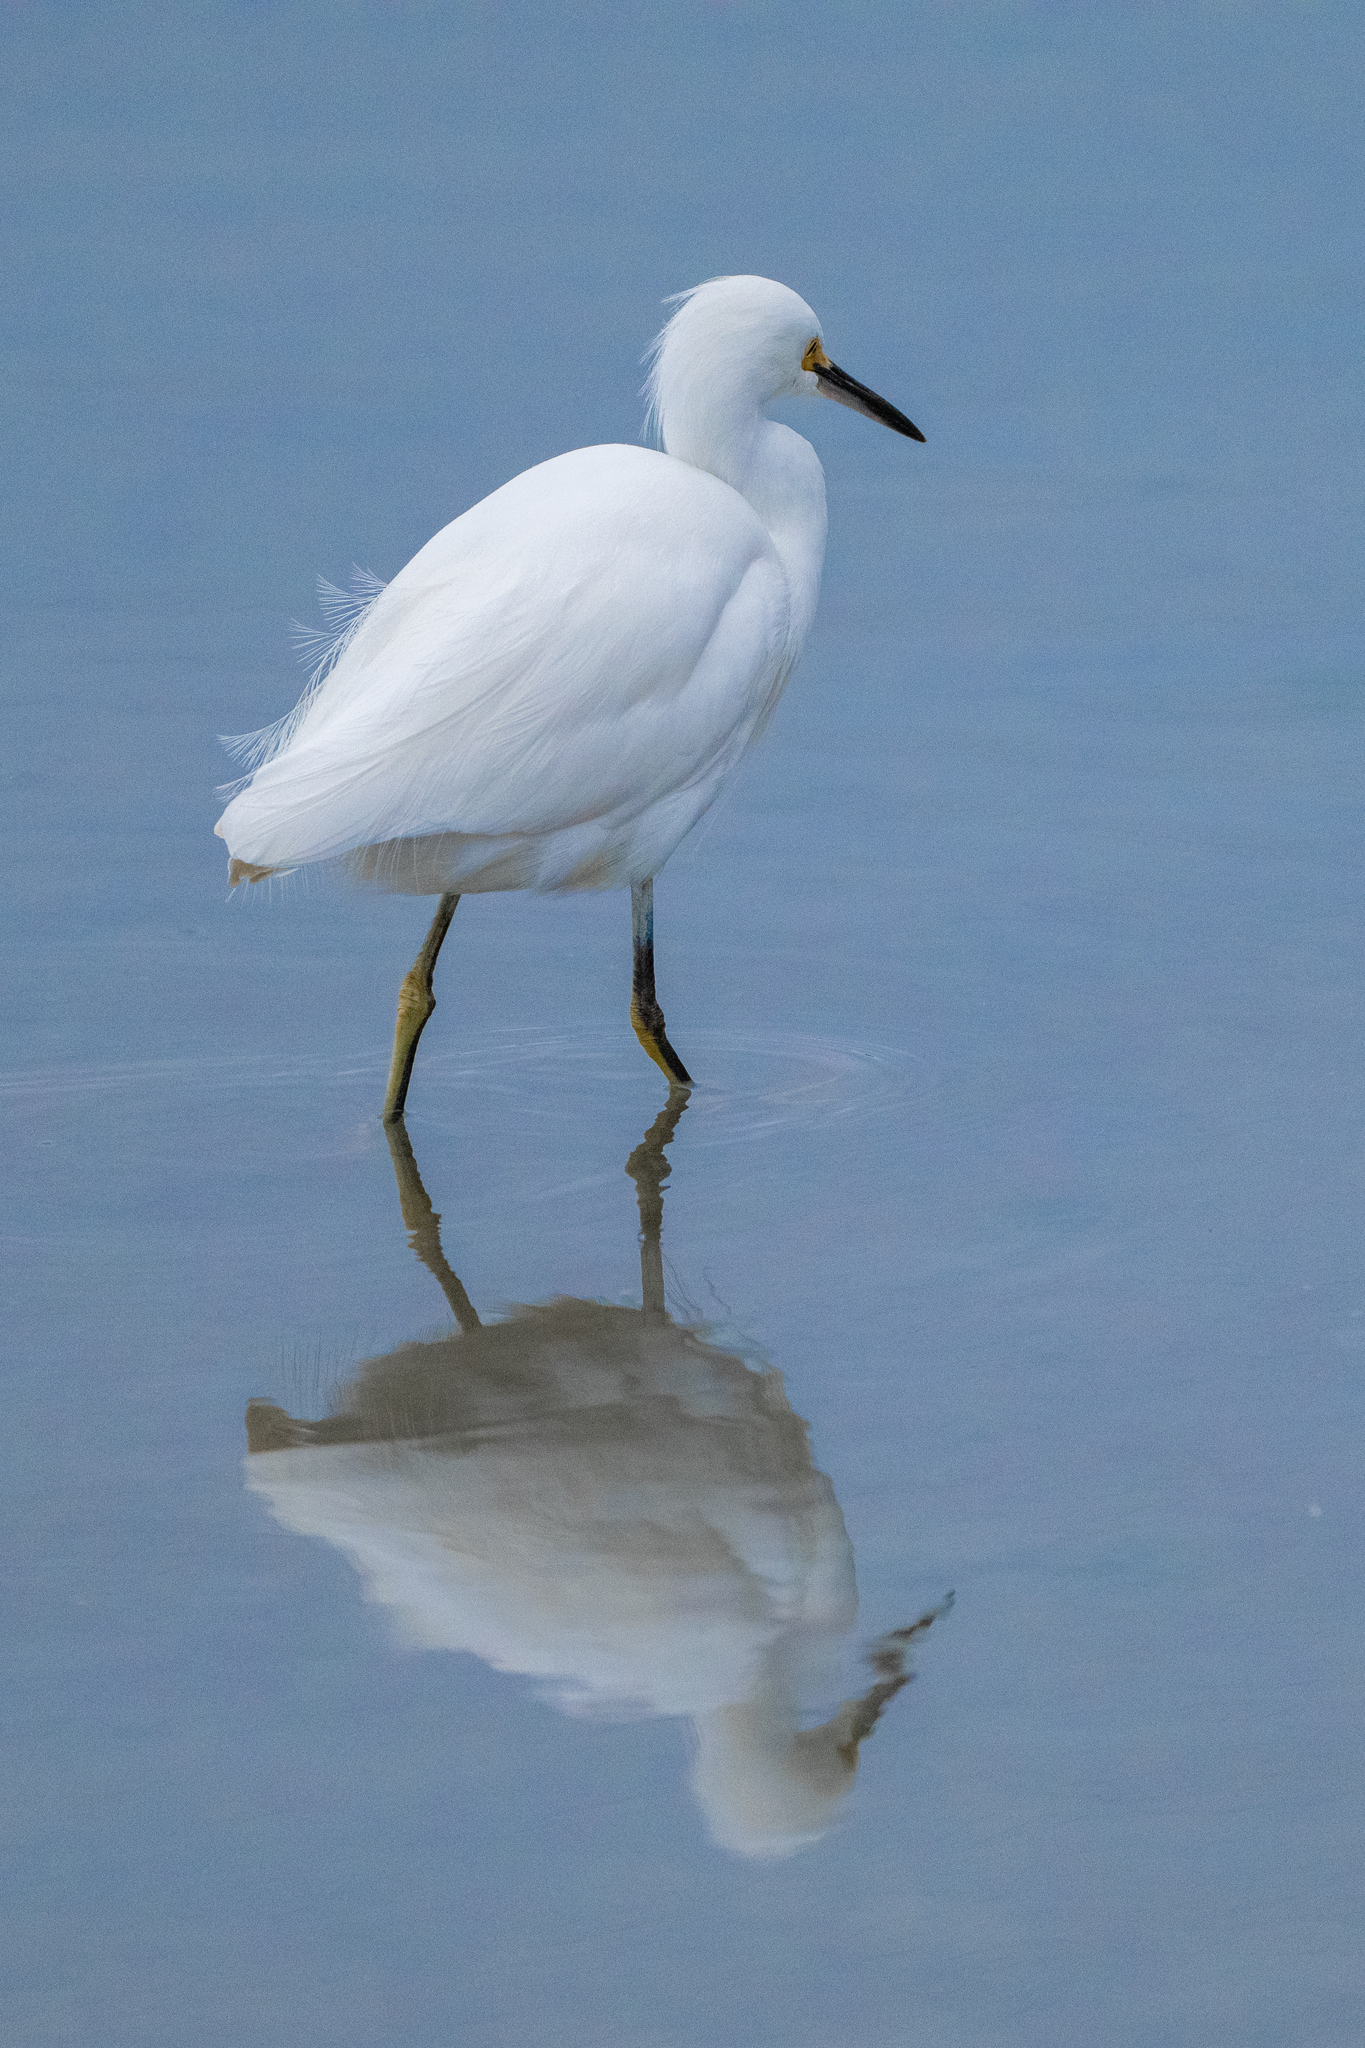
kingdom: Animalia
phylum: Chordata
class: Aves
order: Pelecaniformes
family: Ardeidae
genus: Egretta
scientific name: Egretta thula
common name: Snowy egret
